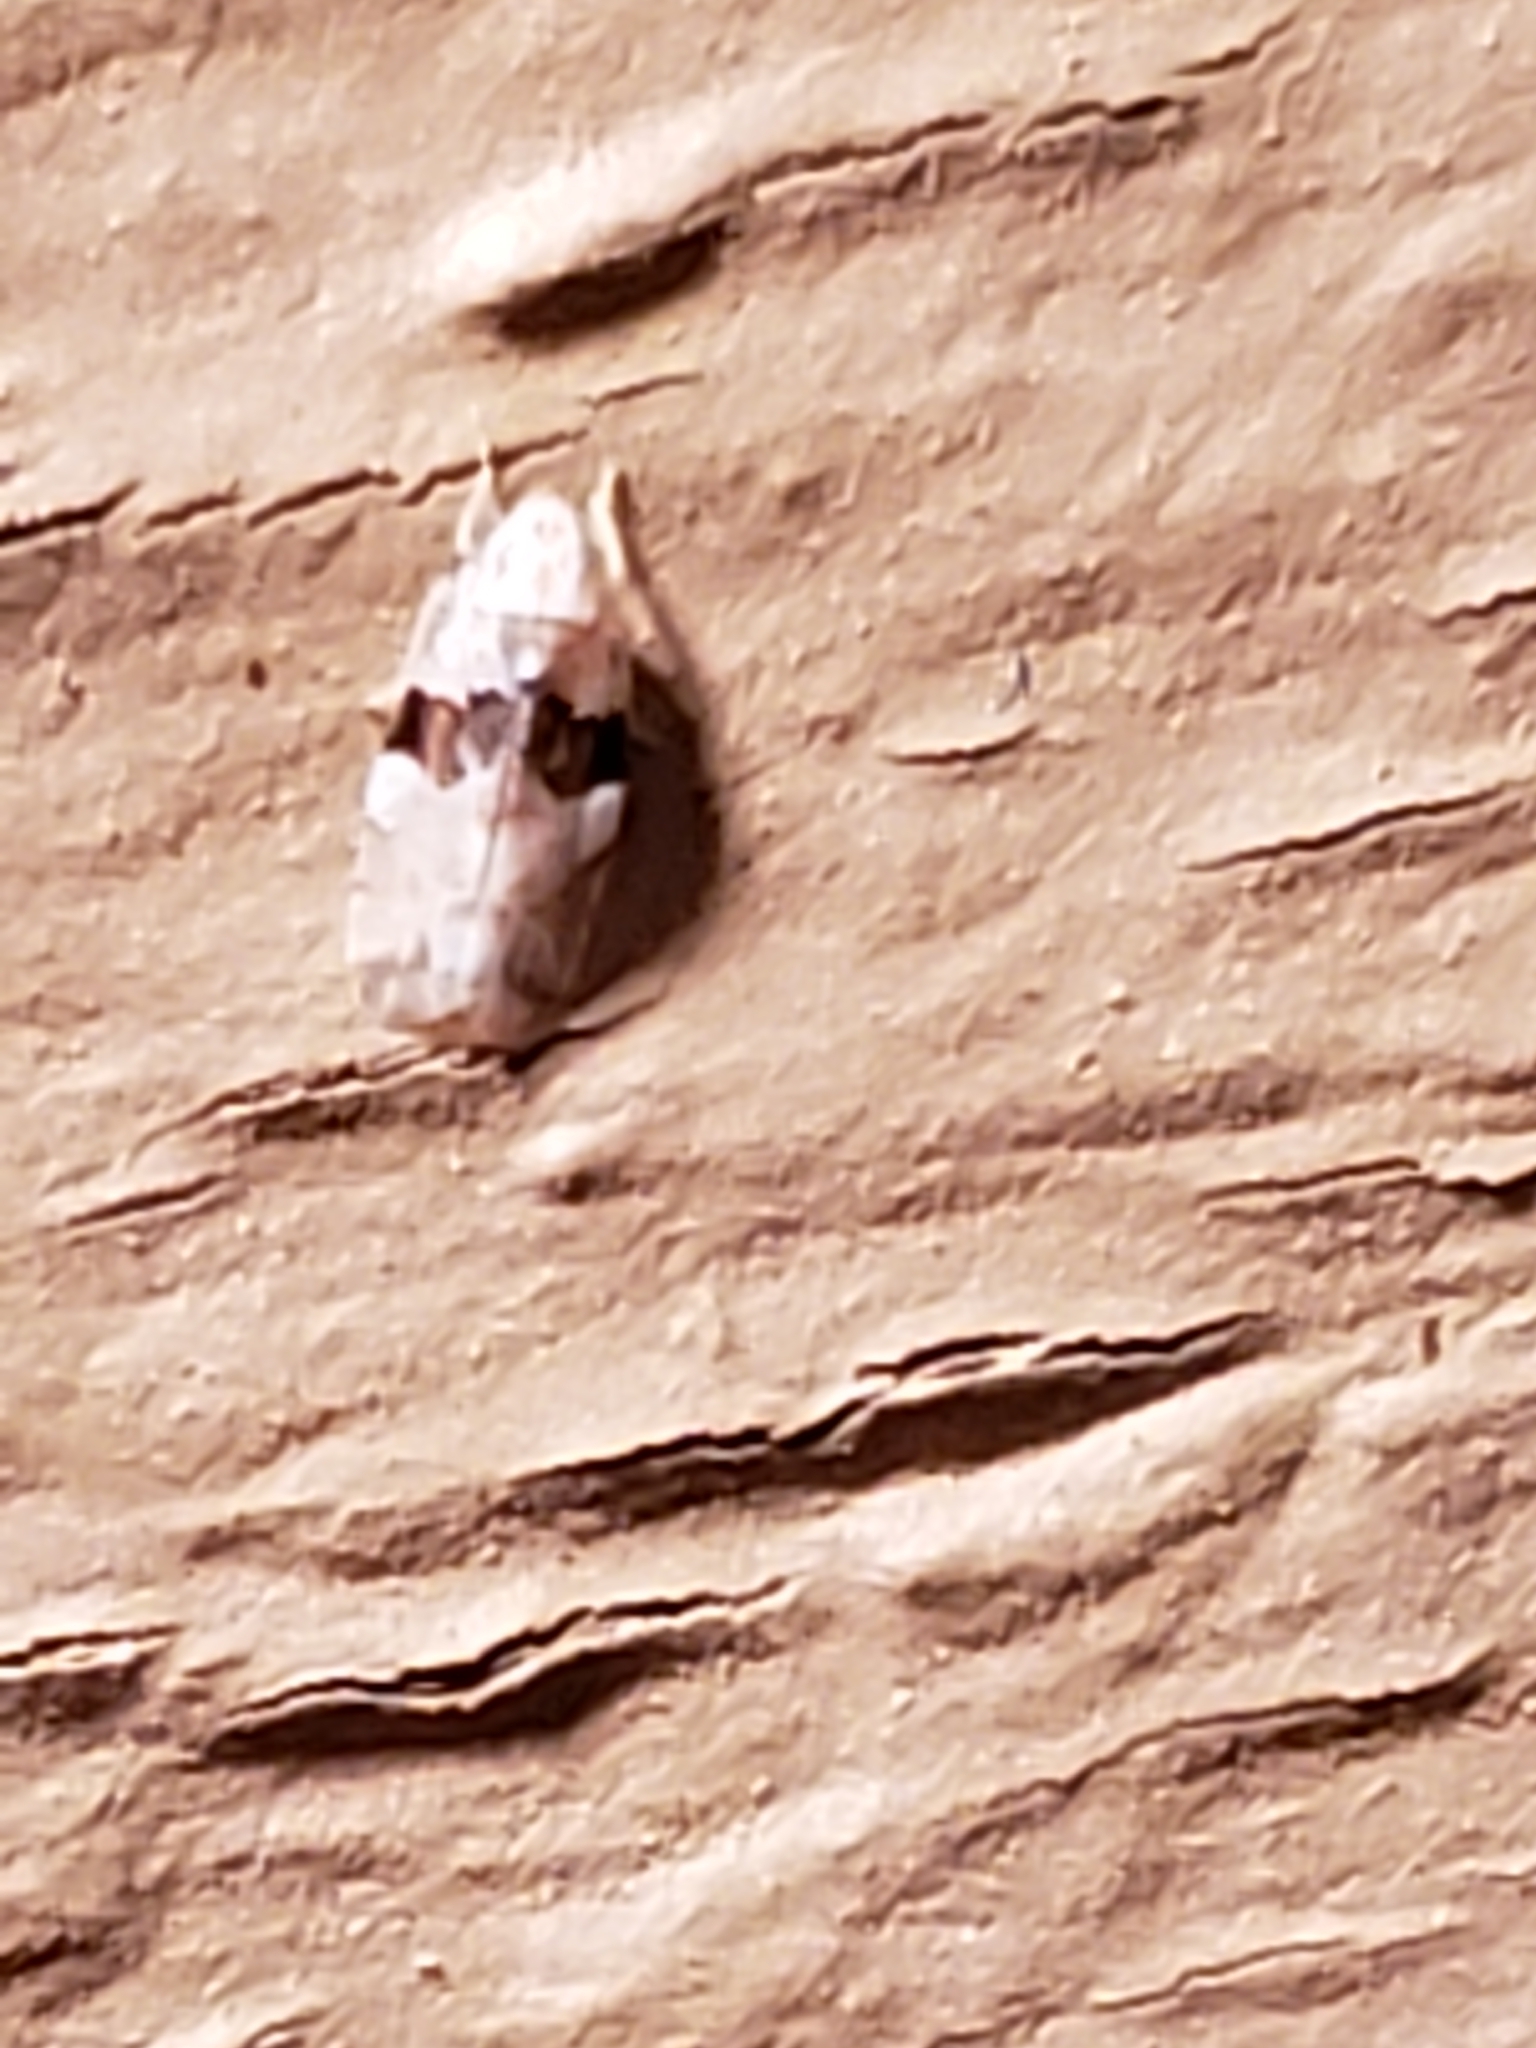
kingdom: Animalia
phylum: Arthropoda
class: Insecta
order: Hemiptera
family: Cicadellidae
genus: Hymetta
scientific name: Hymetta balteata
